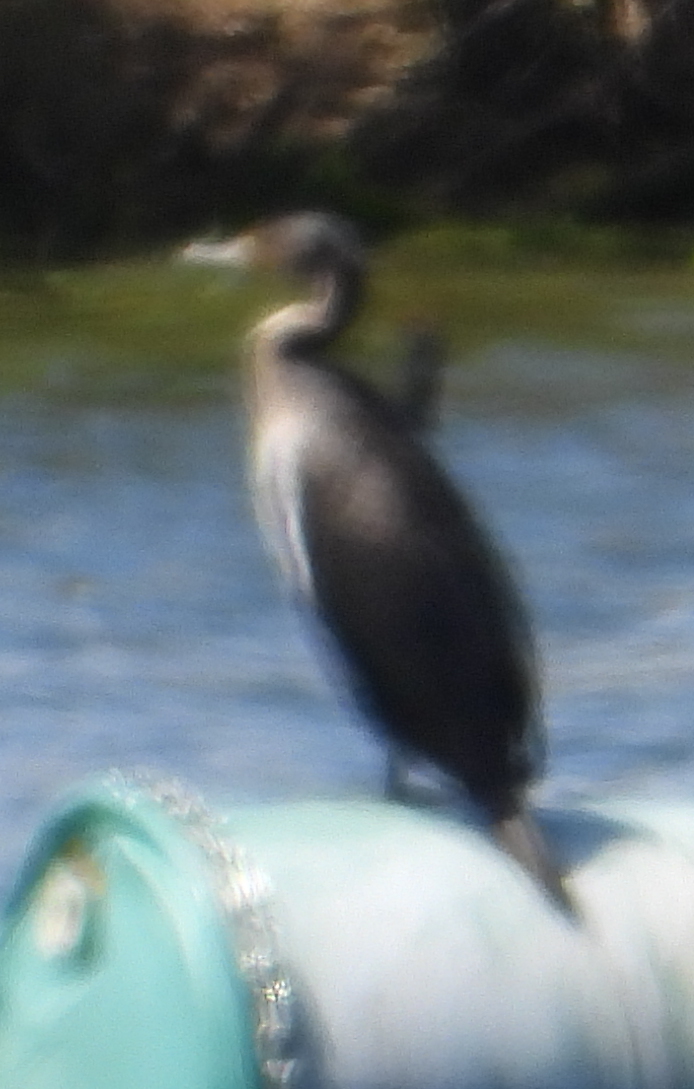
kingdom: Animalia
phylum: Chordata
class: Aves
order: Suliformes
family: Phalacrocoracidae
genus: Phalacrocorax
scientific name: Phalacrocorax carbo
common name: Great cormorant
